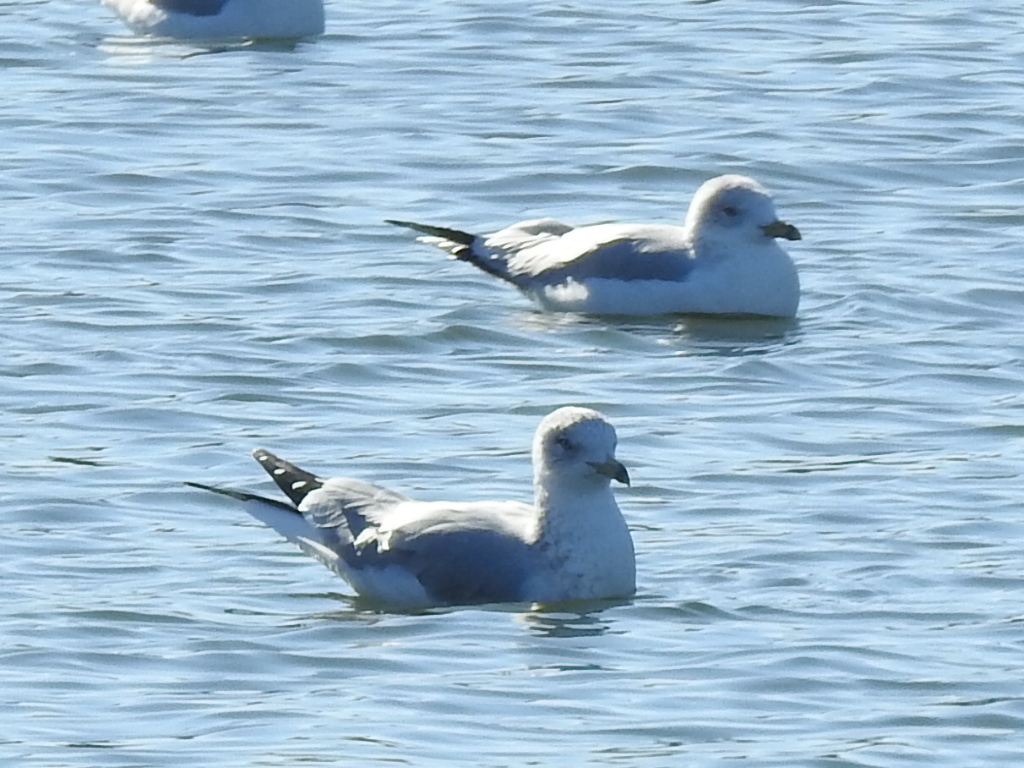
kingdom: Animalia
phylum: Chordata
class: Aves
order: Charadriiformes
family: Laridae
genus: Larus
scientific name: Larus delawarensis
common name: Ring-billed gull
